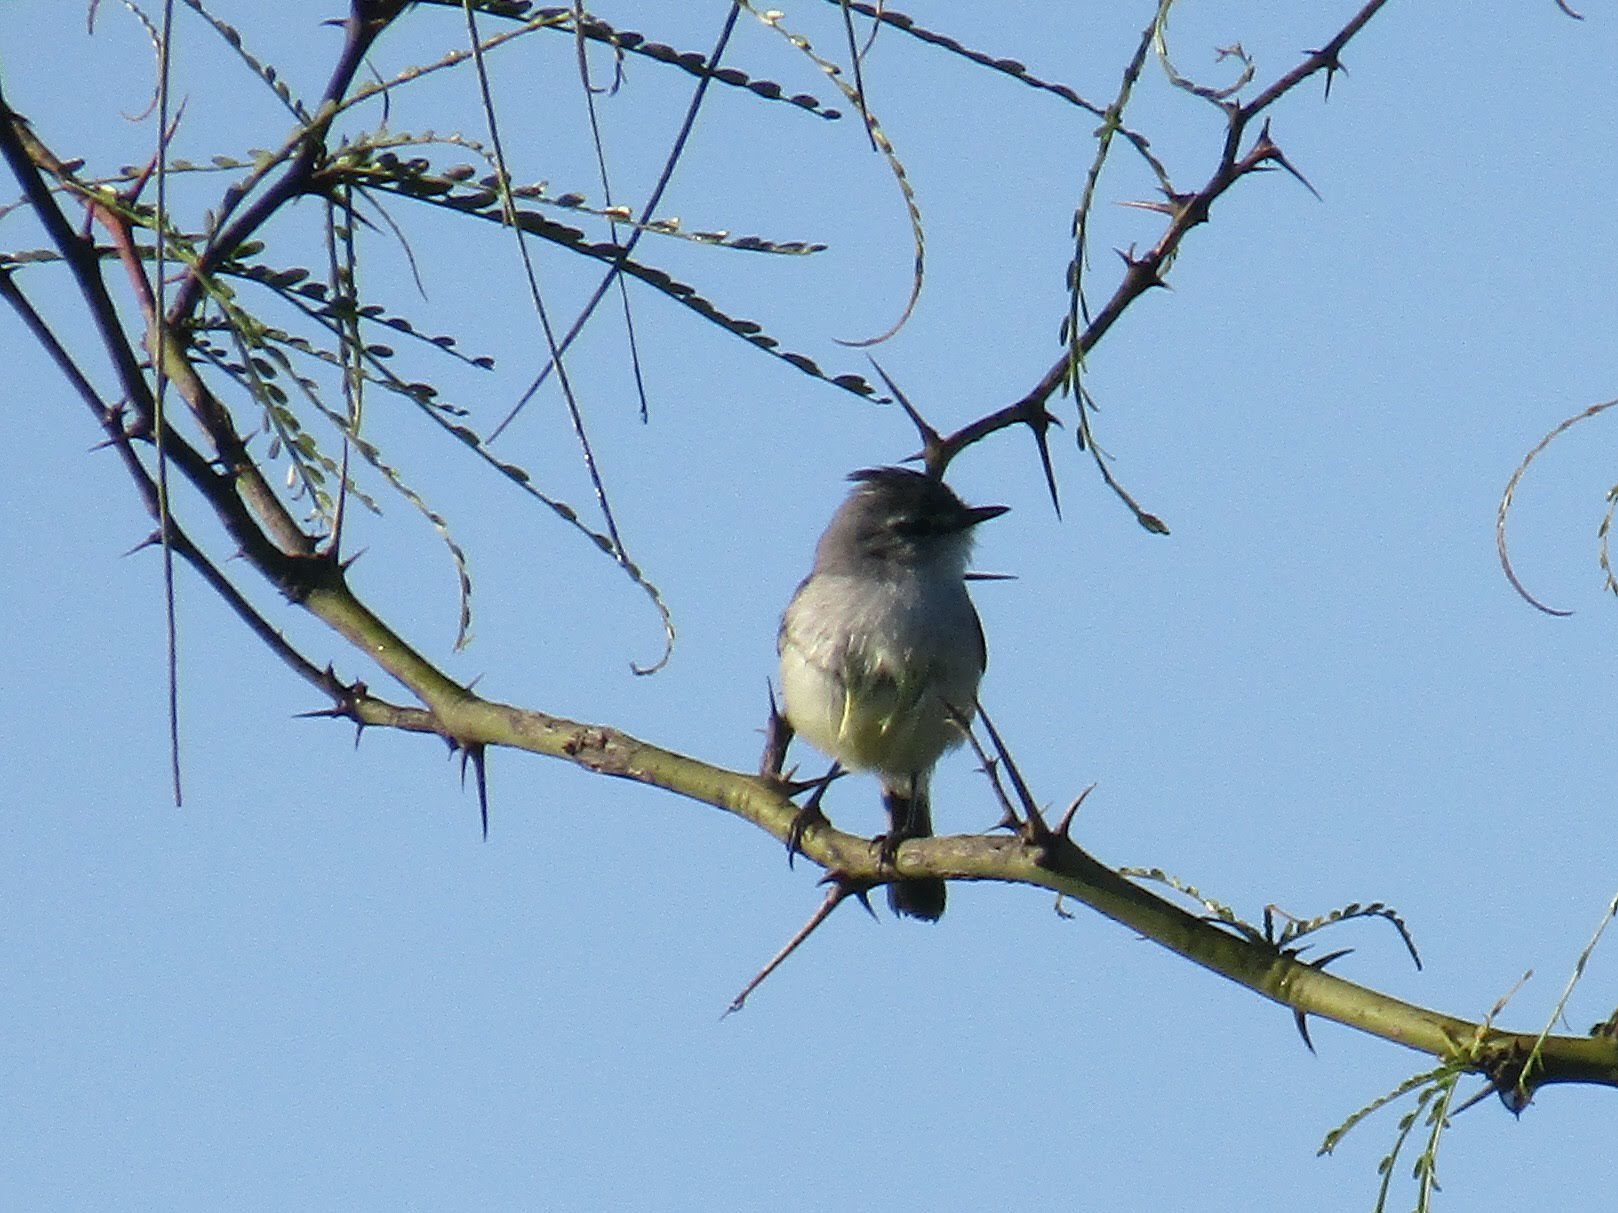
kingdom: Animalia
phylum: Chordata
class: Aves
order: Passeriformes
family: Tyrannidae
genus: Serpophaga
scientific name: Serpophaga subcristata
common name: White-crested tyrannulet
